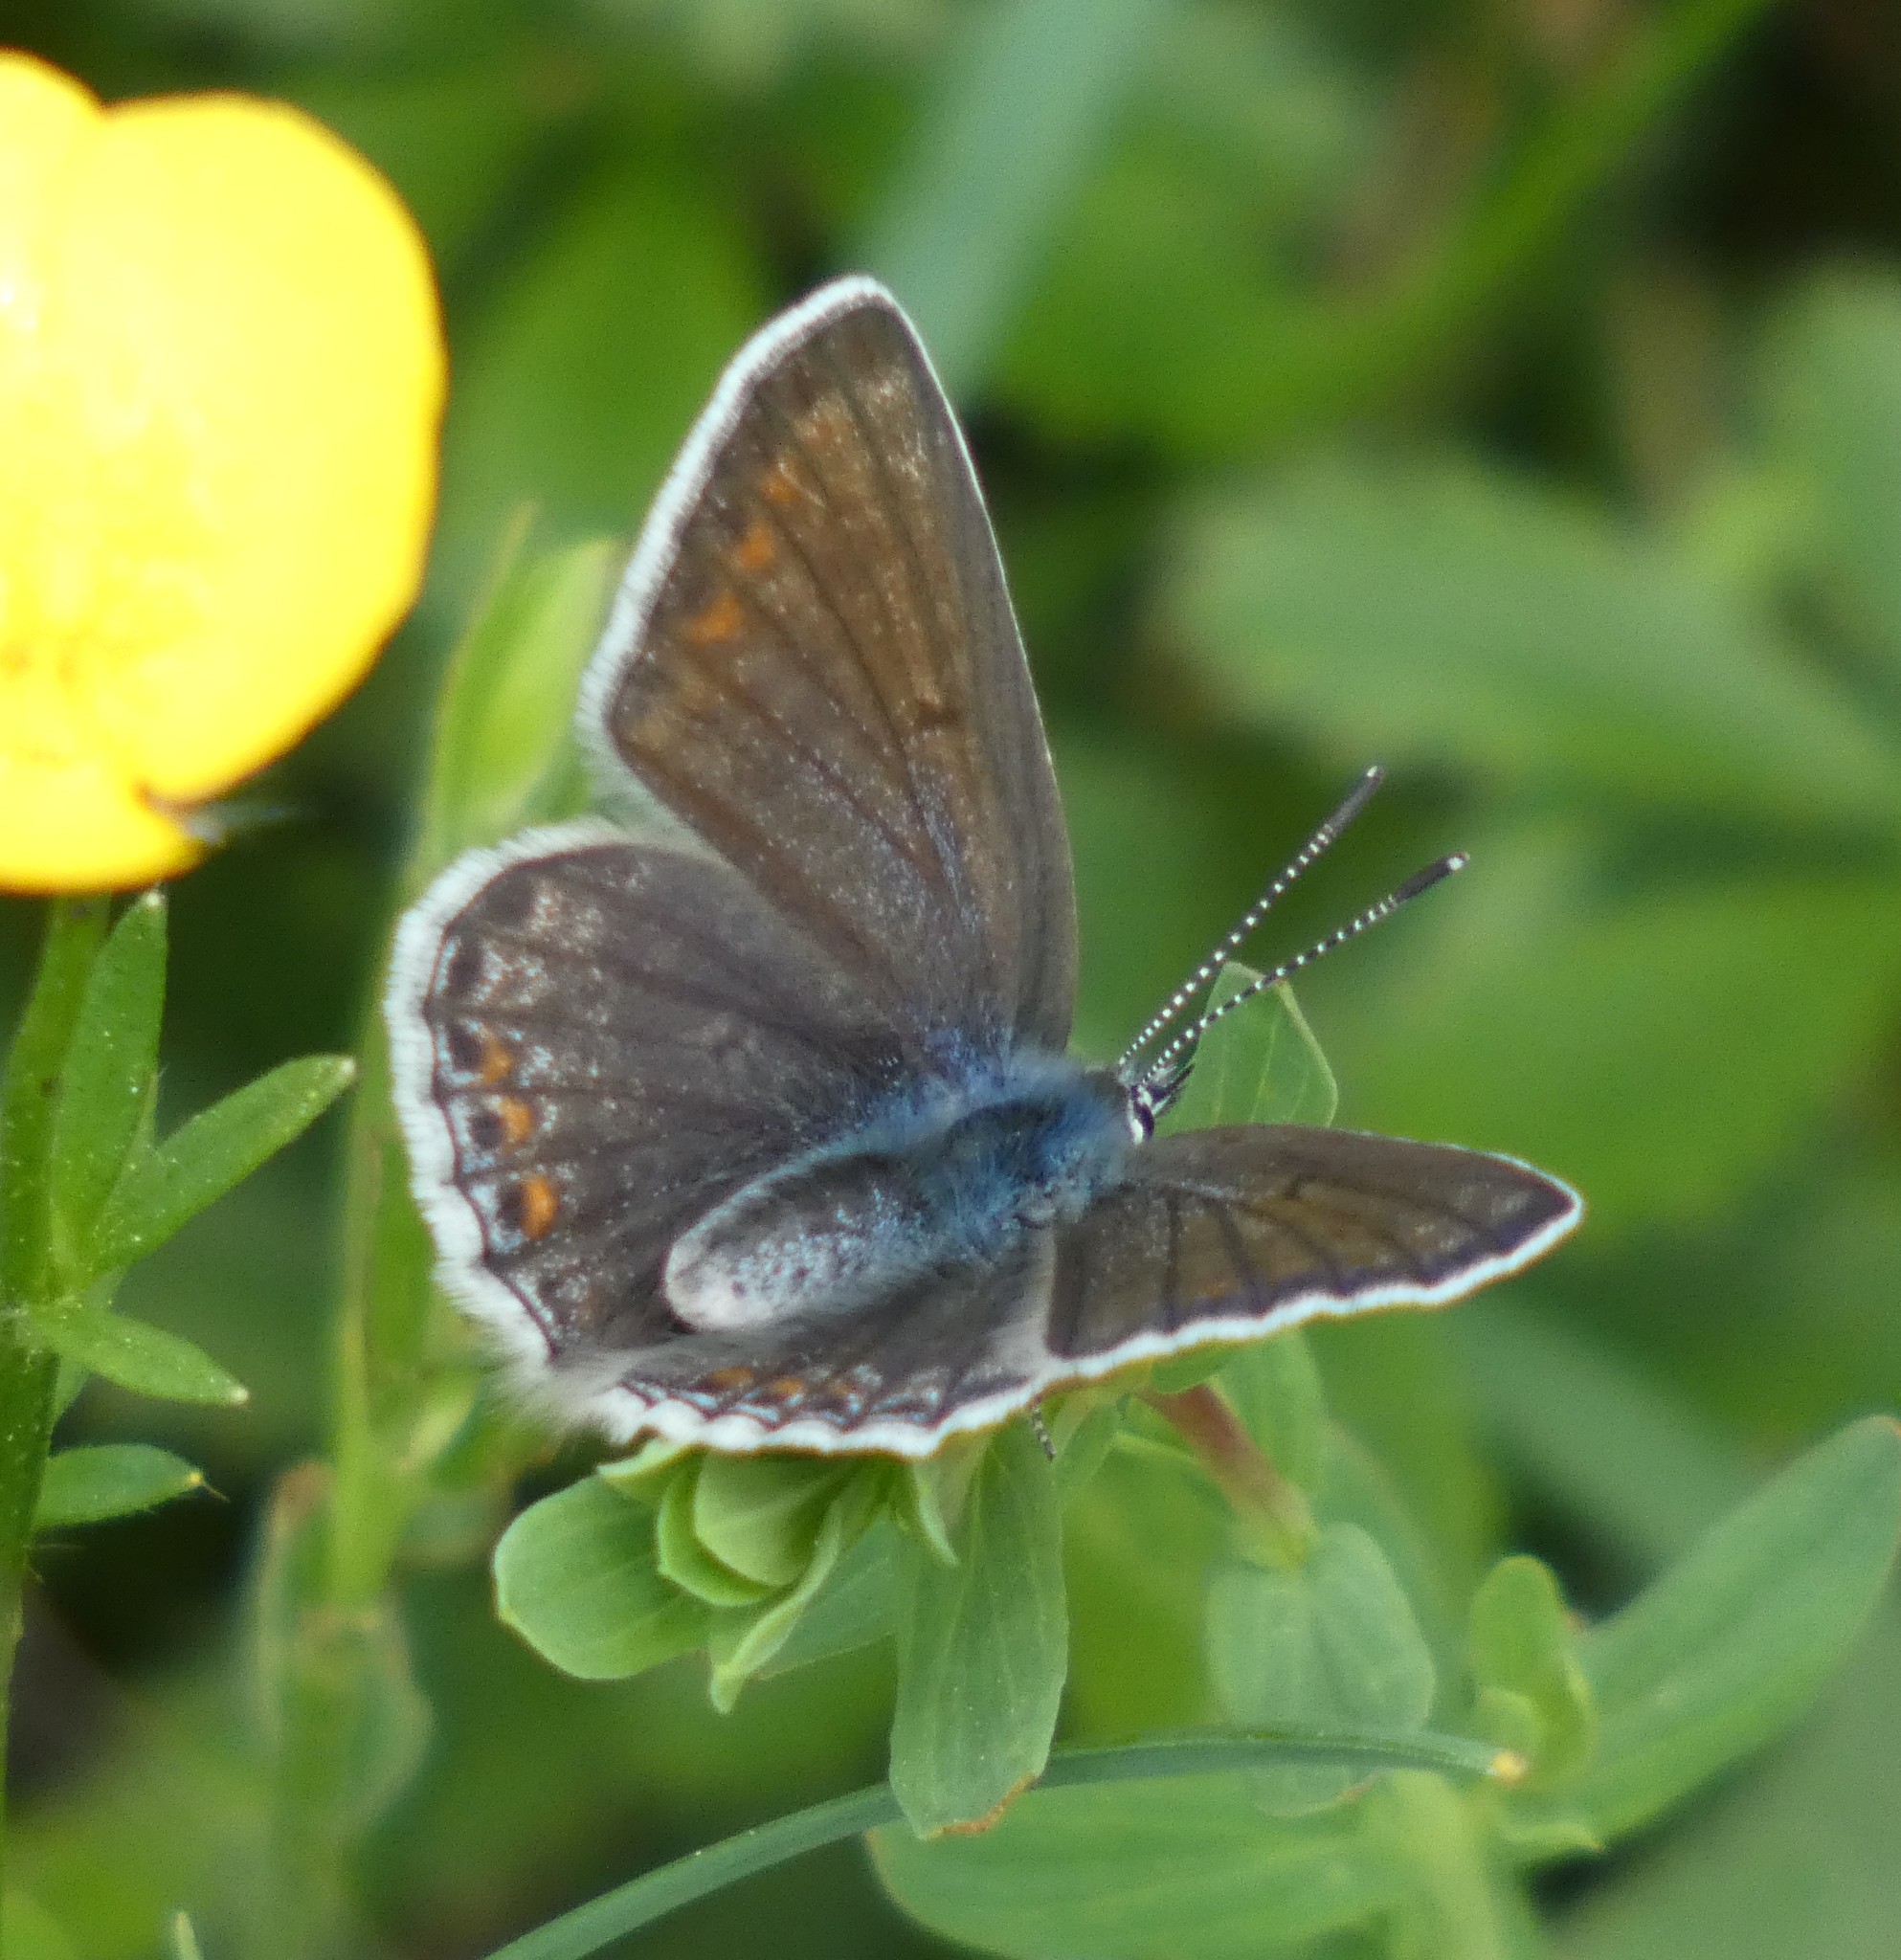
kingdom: Animalia
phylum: Arthropoda
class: Insecta
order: Lepidoptera
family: Lycaenidae
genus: Polyommatus
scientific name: Polyommatus icarus
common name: Common blue
